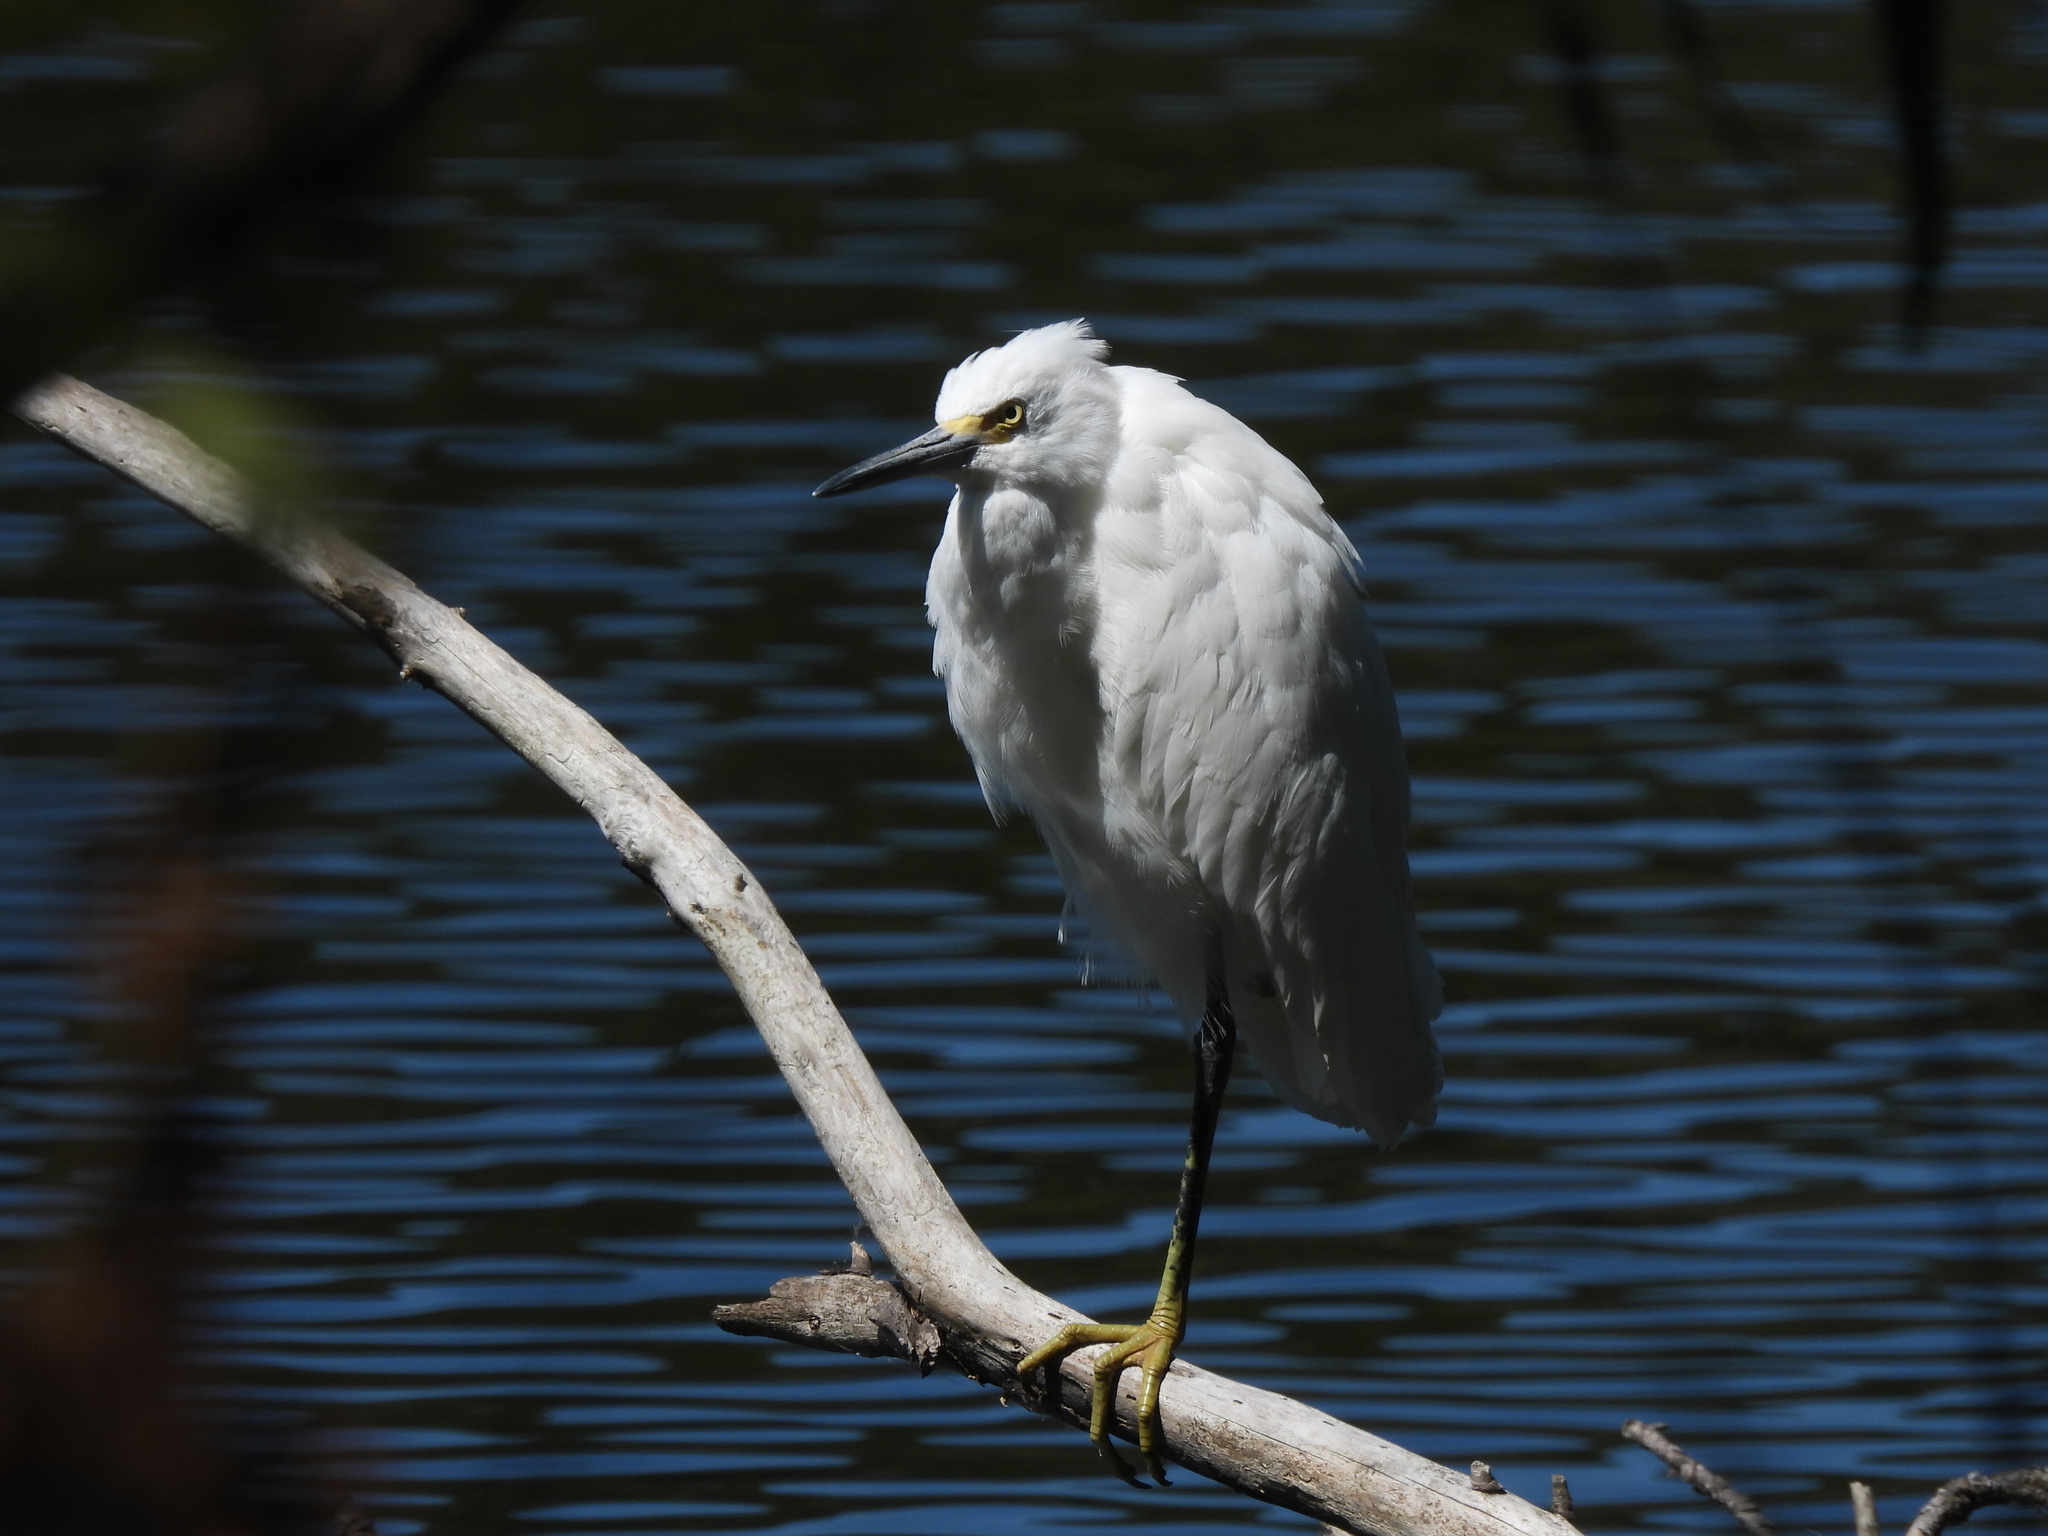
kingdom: Animalia
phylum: Chordata
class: Aves
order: Pelecaniformes
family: Ardeidae
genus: Egretta
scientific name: Egretta thula
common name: Snowy egret
